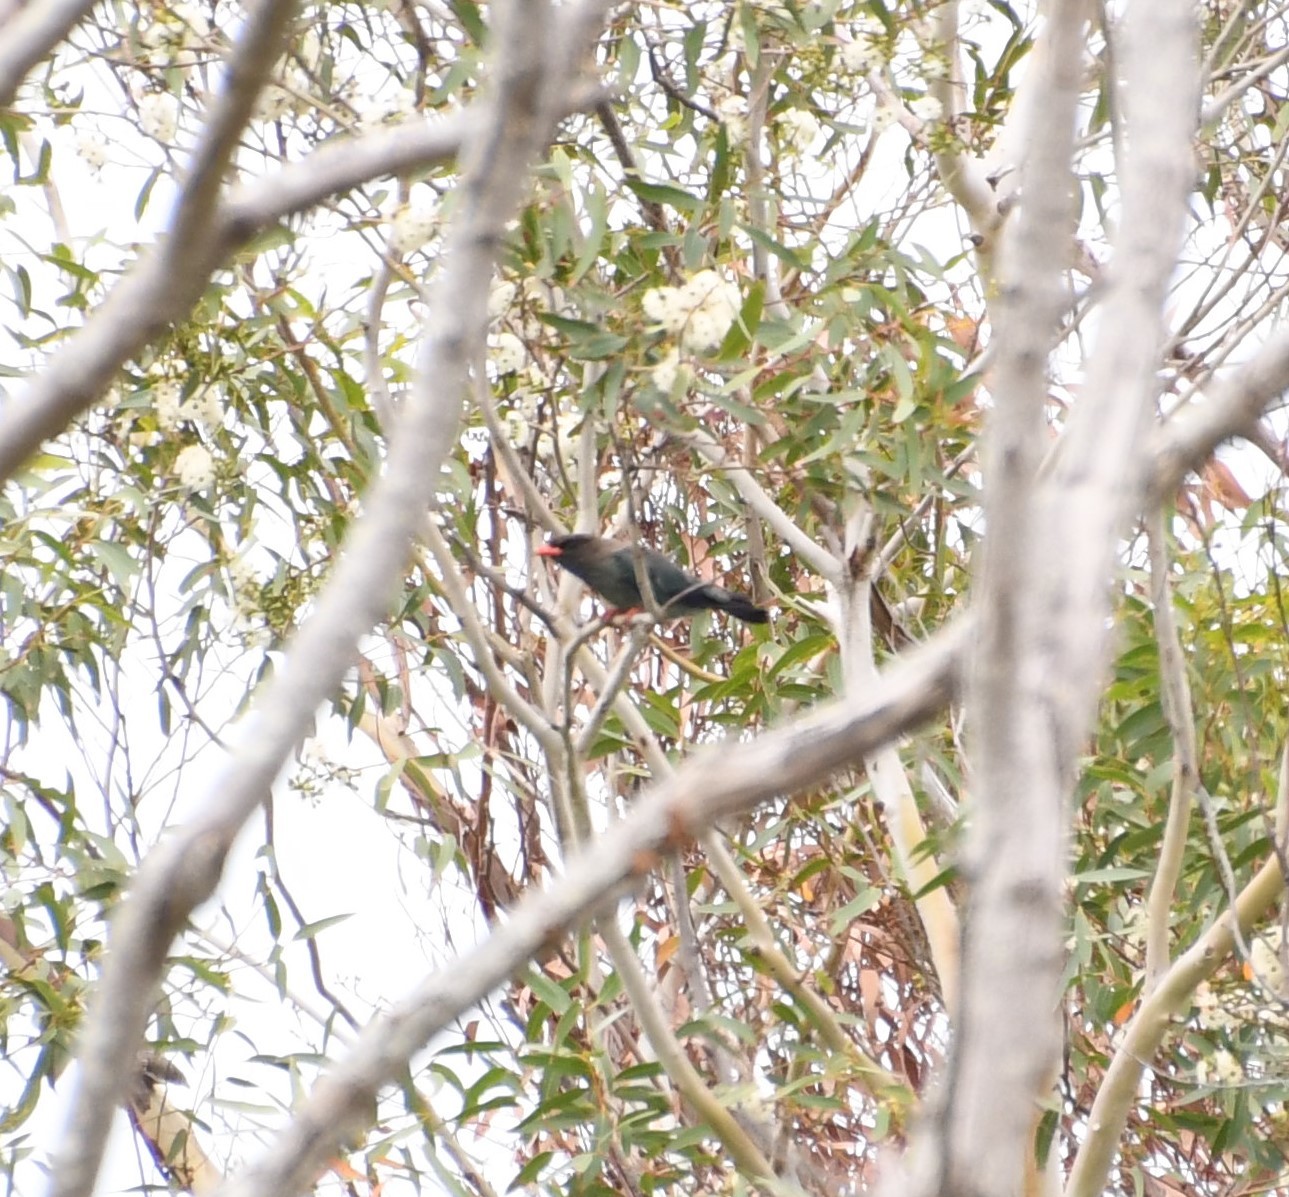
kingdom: Animalia
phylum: Chordata
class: Aves
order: Coraciiformes
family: Coraciidae
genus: Eurystomus
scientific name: Eurystomus orientalis
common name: Oriental dollarbird
